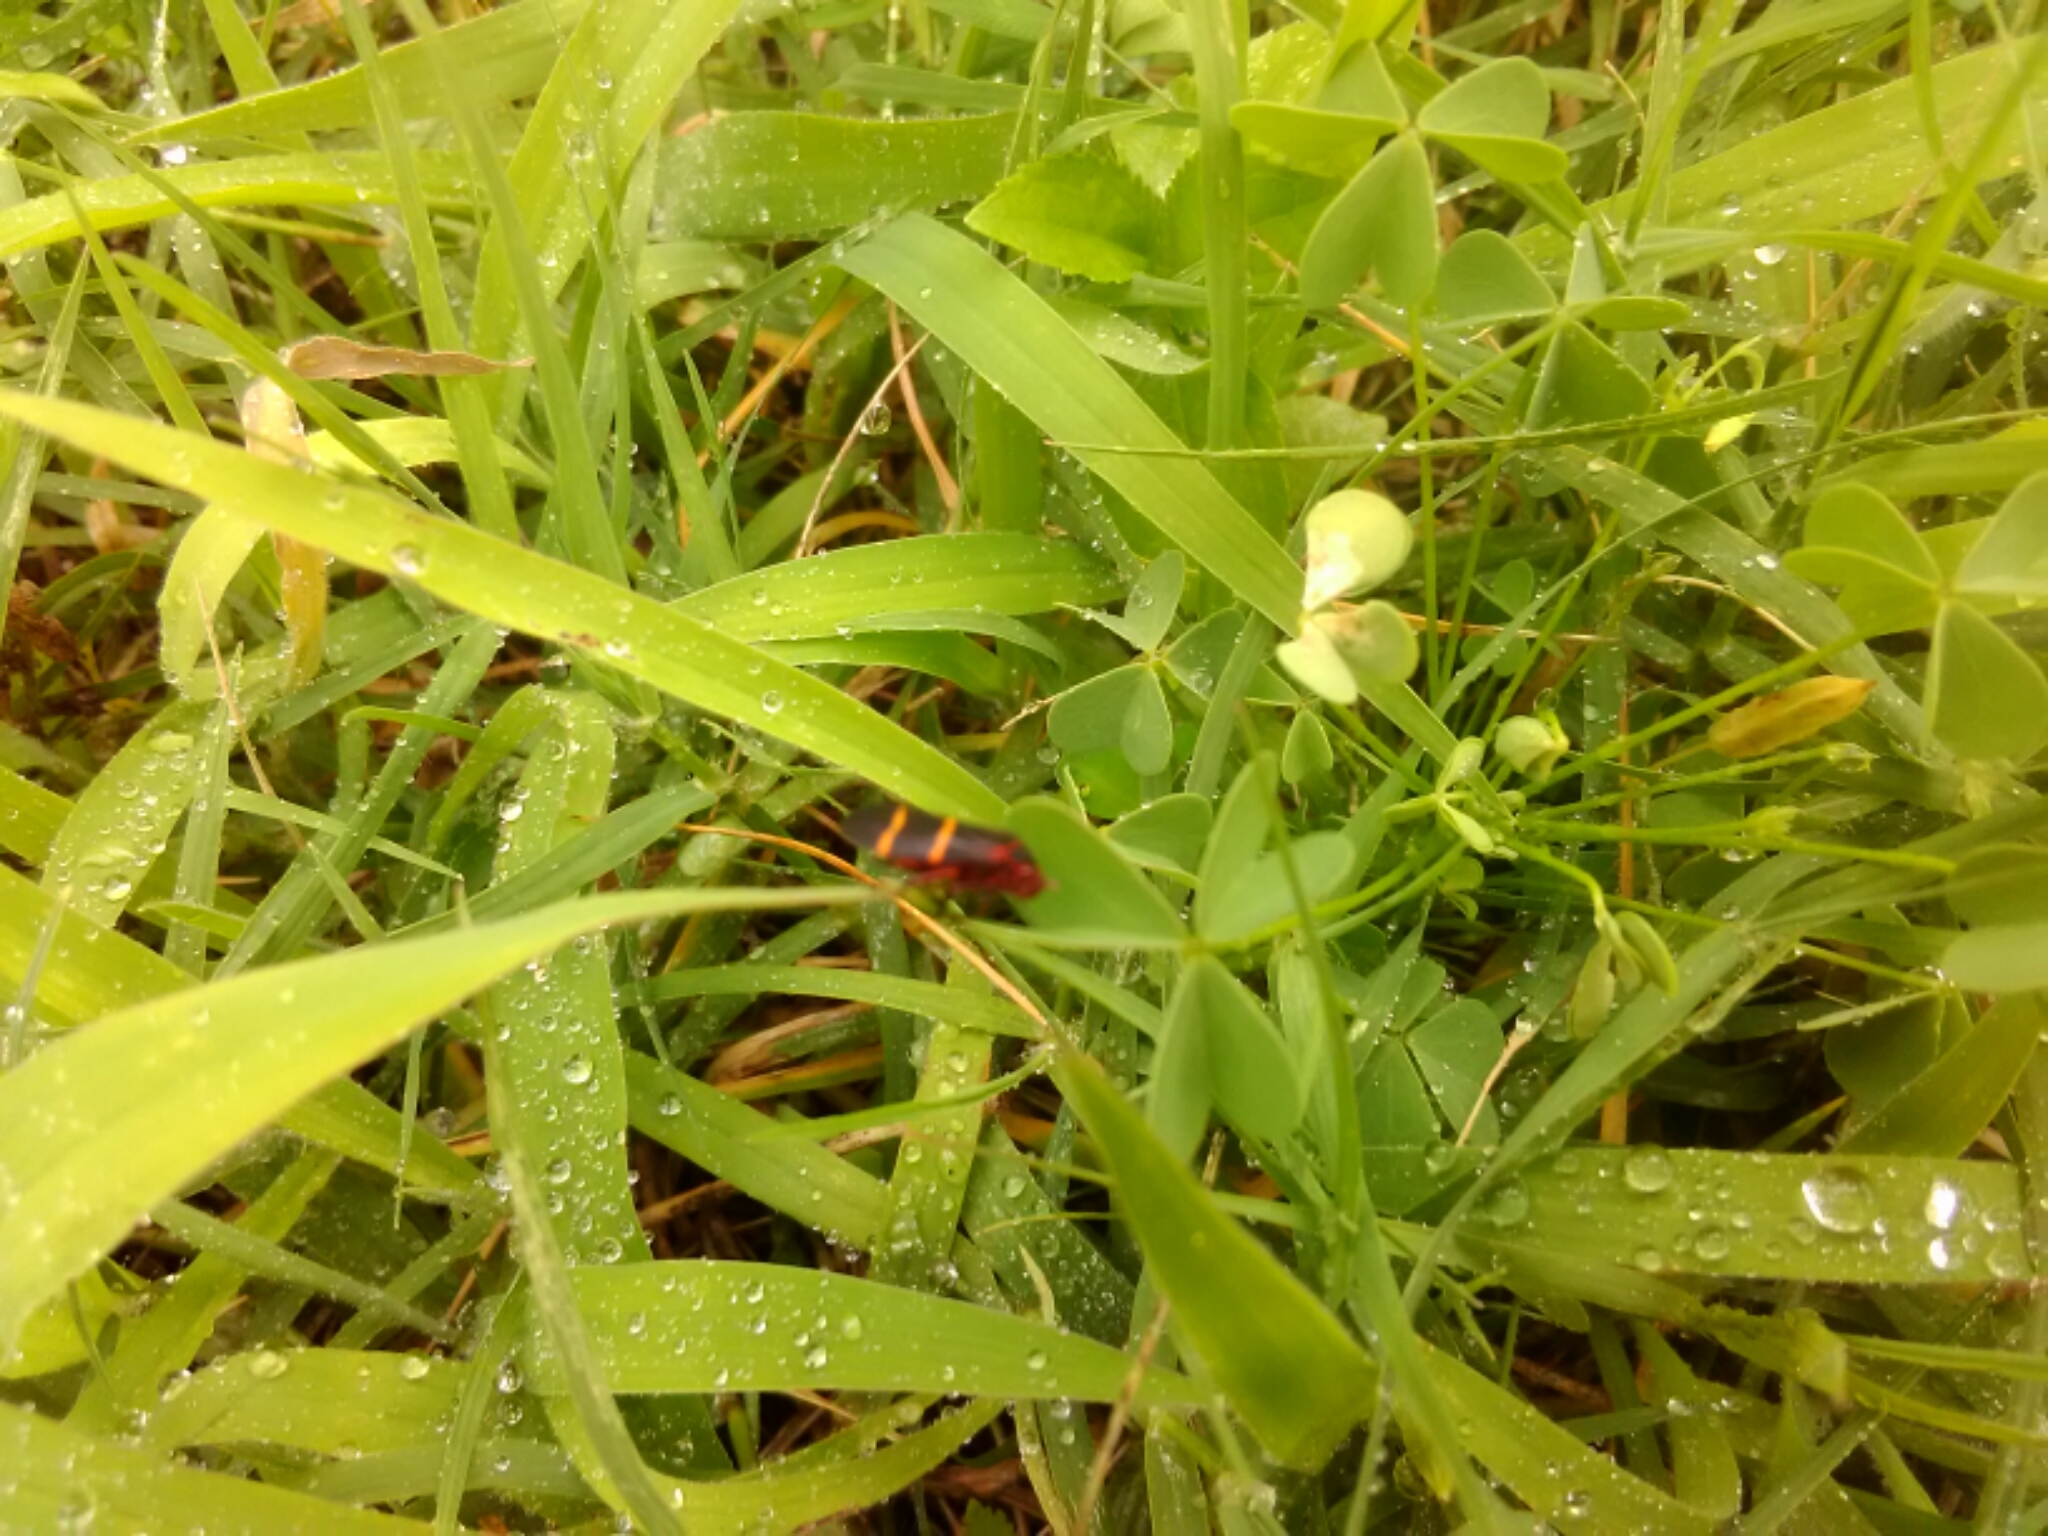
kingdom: Animalia
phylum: Arthropoda
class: Insecta
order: Hemiptera
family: Cercopidae
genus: Prosapia
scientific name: Prosapia bicincta
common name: Twolined spittlebug
